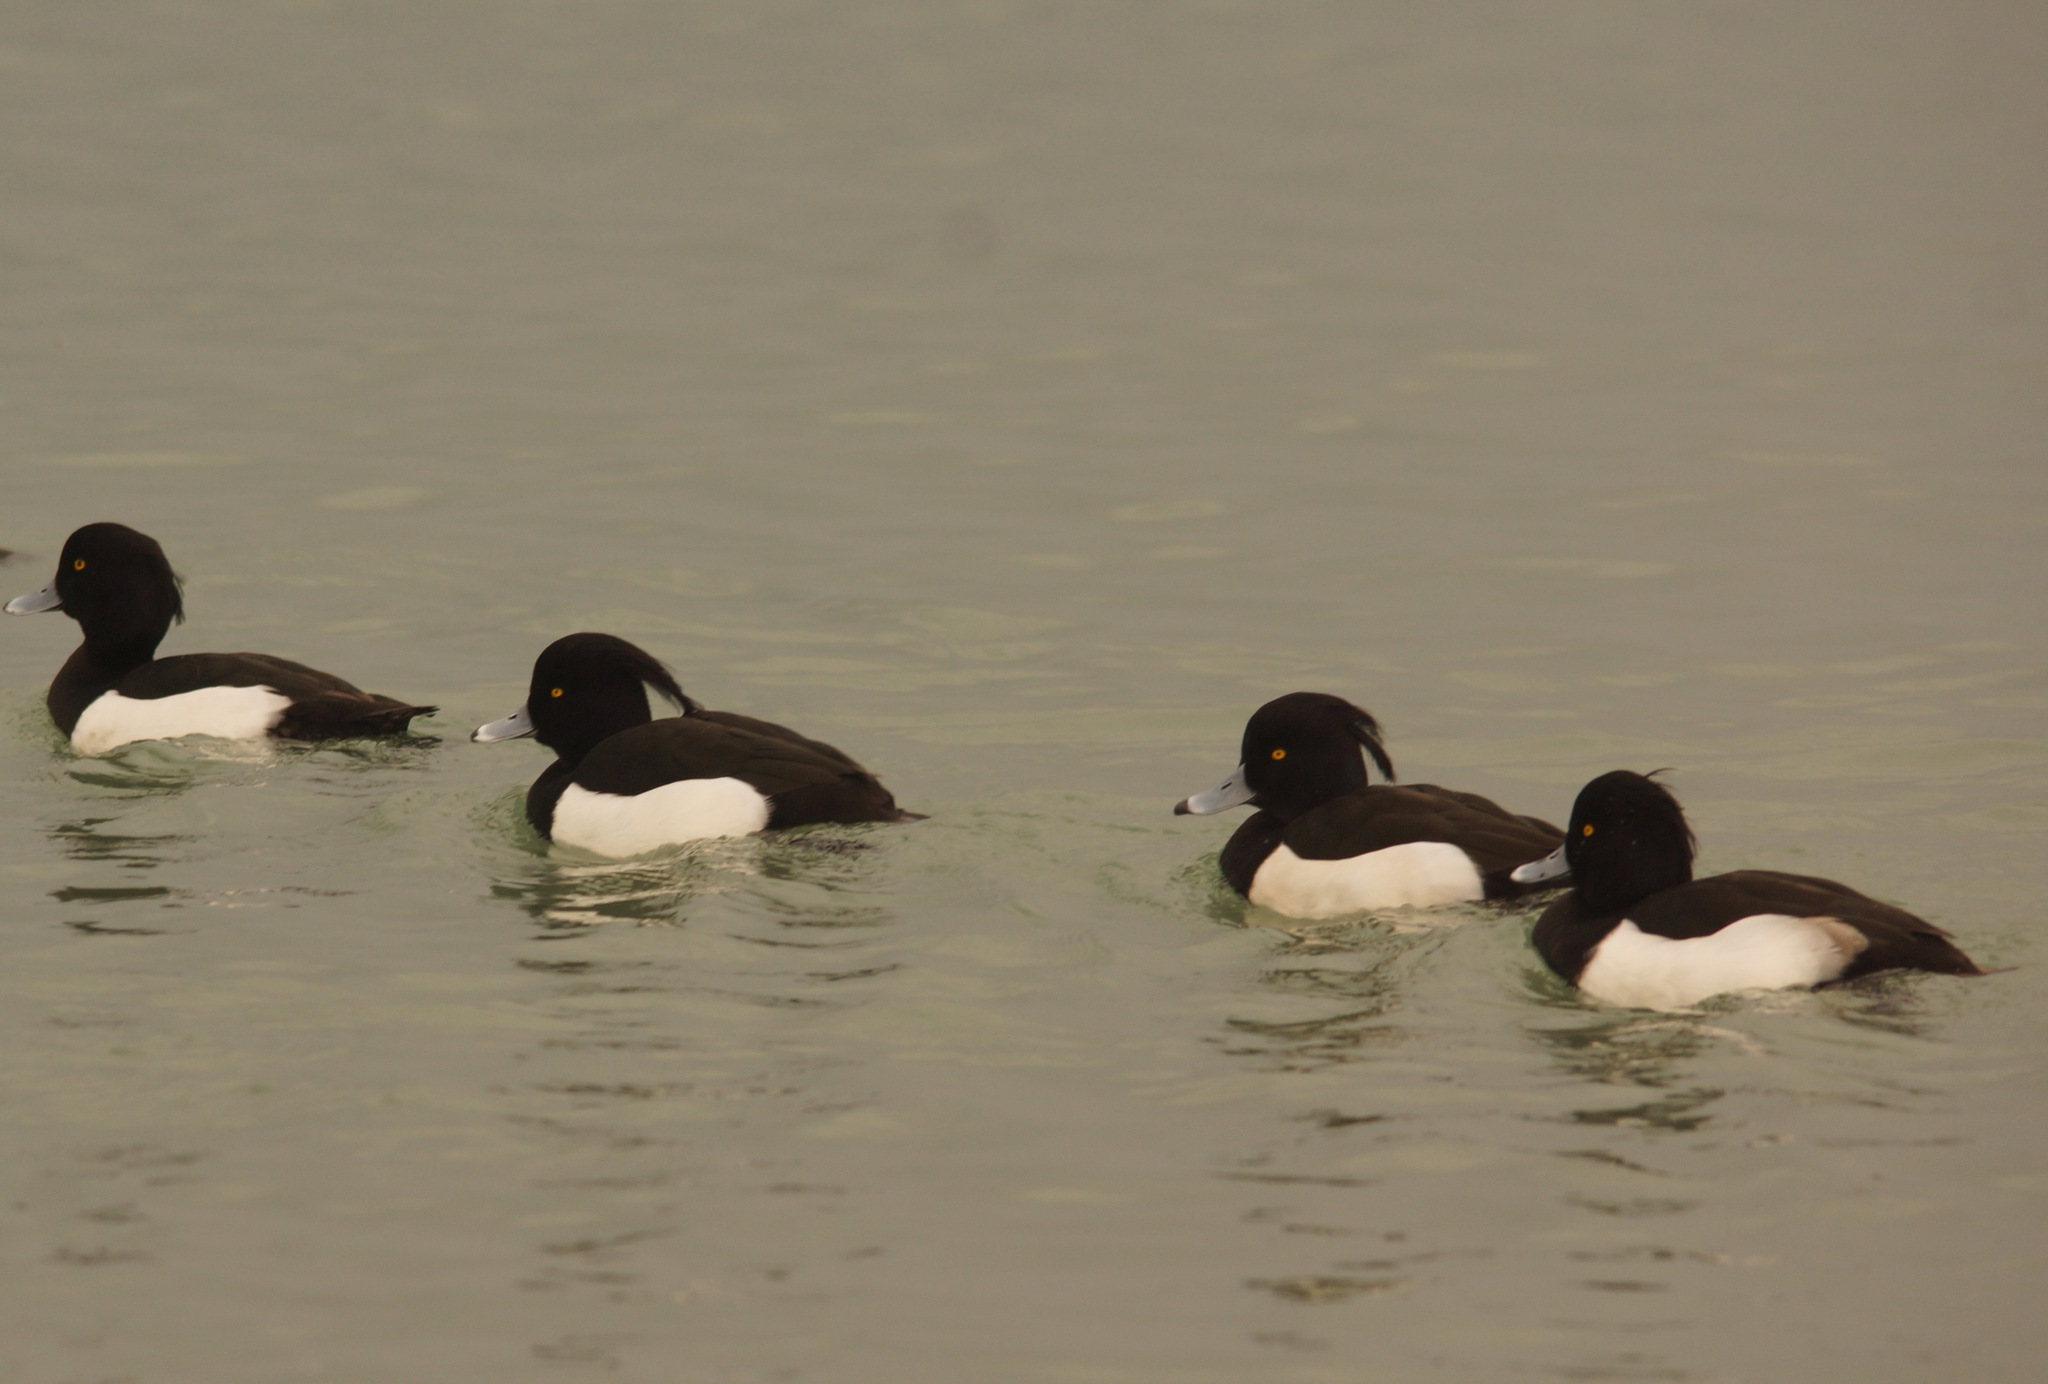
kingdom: Animalia
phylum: Chordata
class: Aves
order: Anseriformes
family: Anatidae
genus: Aythya
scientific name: Aythya fuligula
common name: Tufted duck
